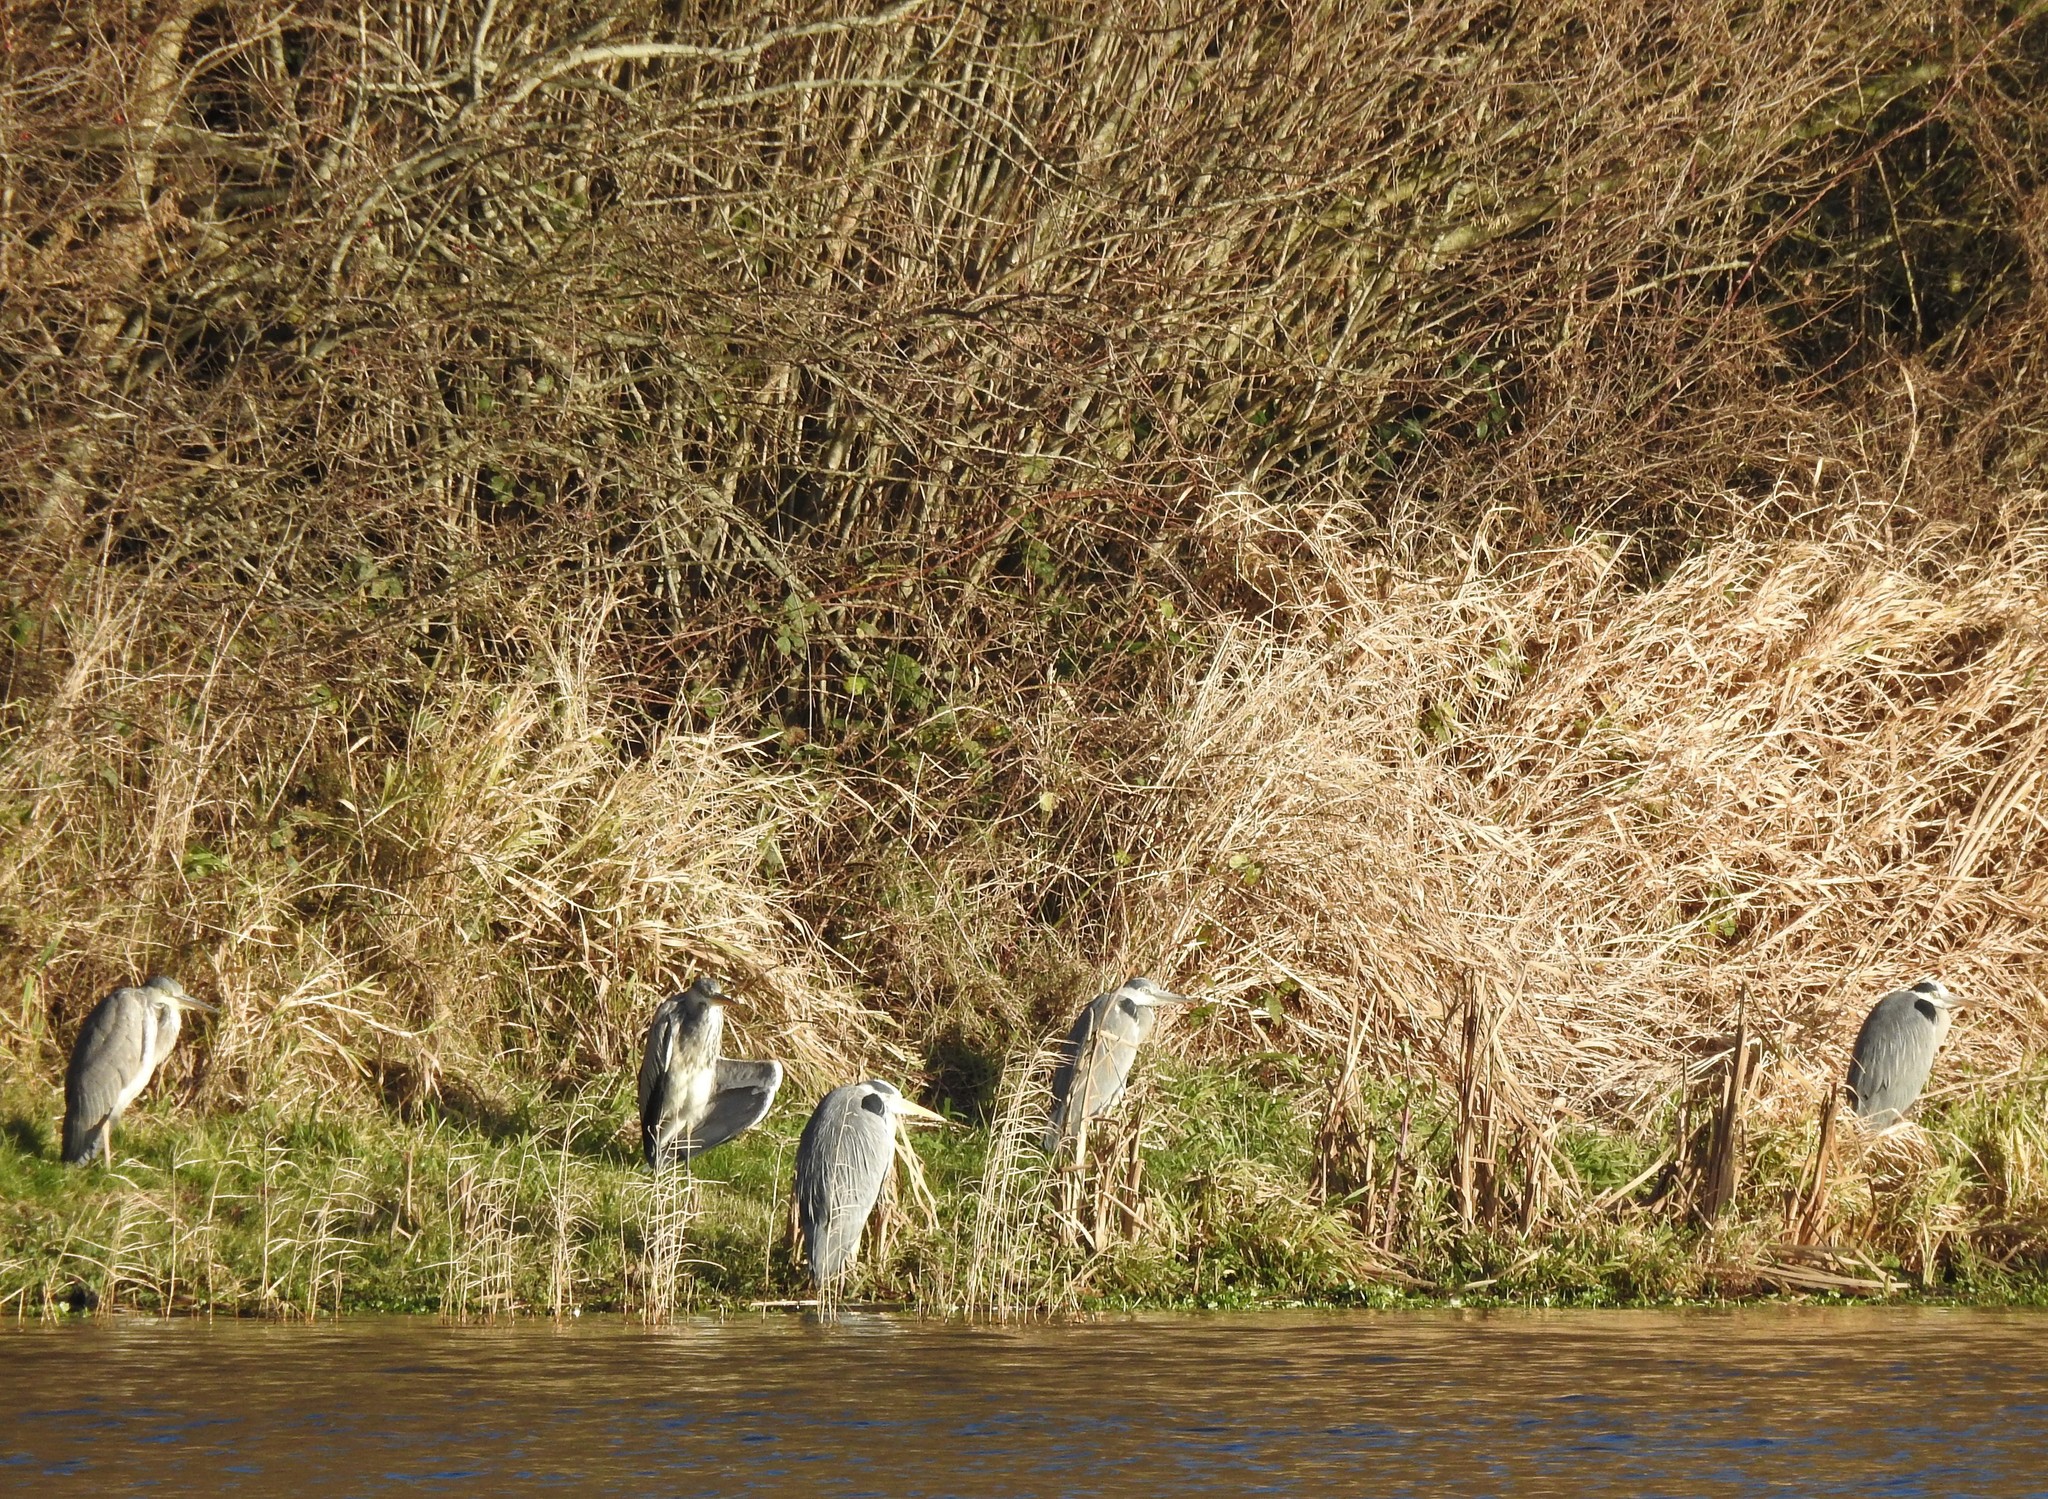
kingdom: Animalia
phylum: Chordata
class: Aves
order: Pelecaniformes
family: Ardeidae
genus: Ardea
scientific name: Ardea cinerea
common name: Grey heron
